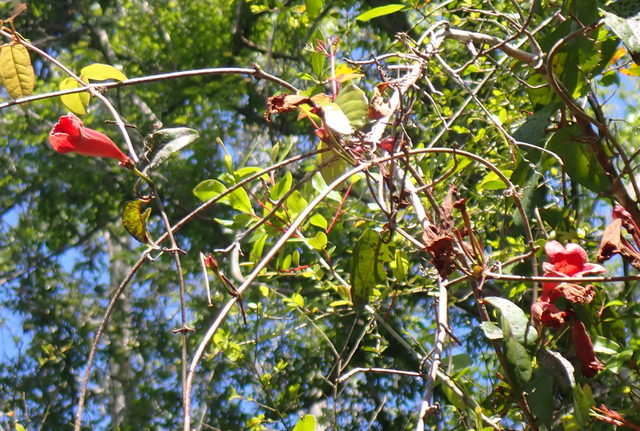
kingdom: Plantae
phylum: Tracheophyta
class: Magnoliopsida
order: Lamiales
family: Bignoniaceae
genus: Bignonia
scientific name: Bignonia capreolata
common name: Crossvine
